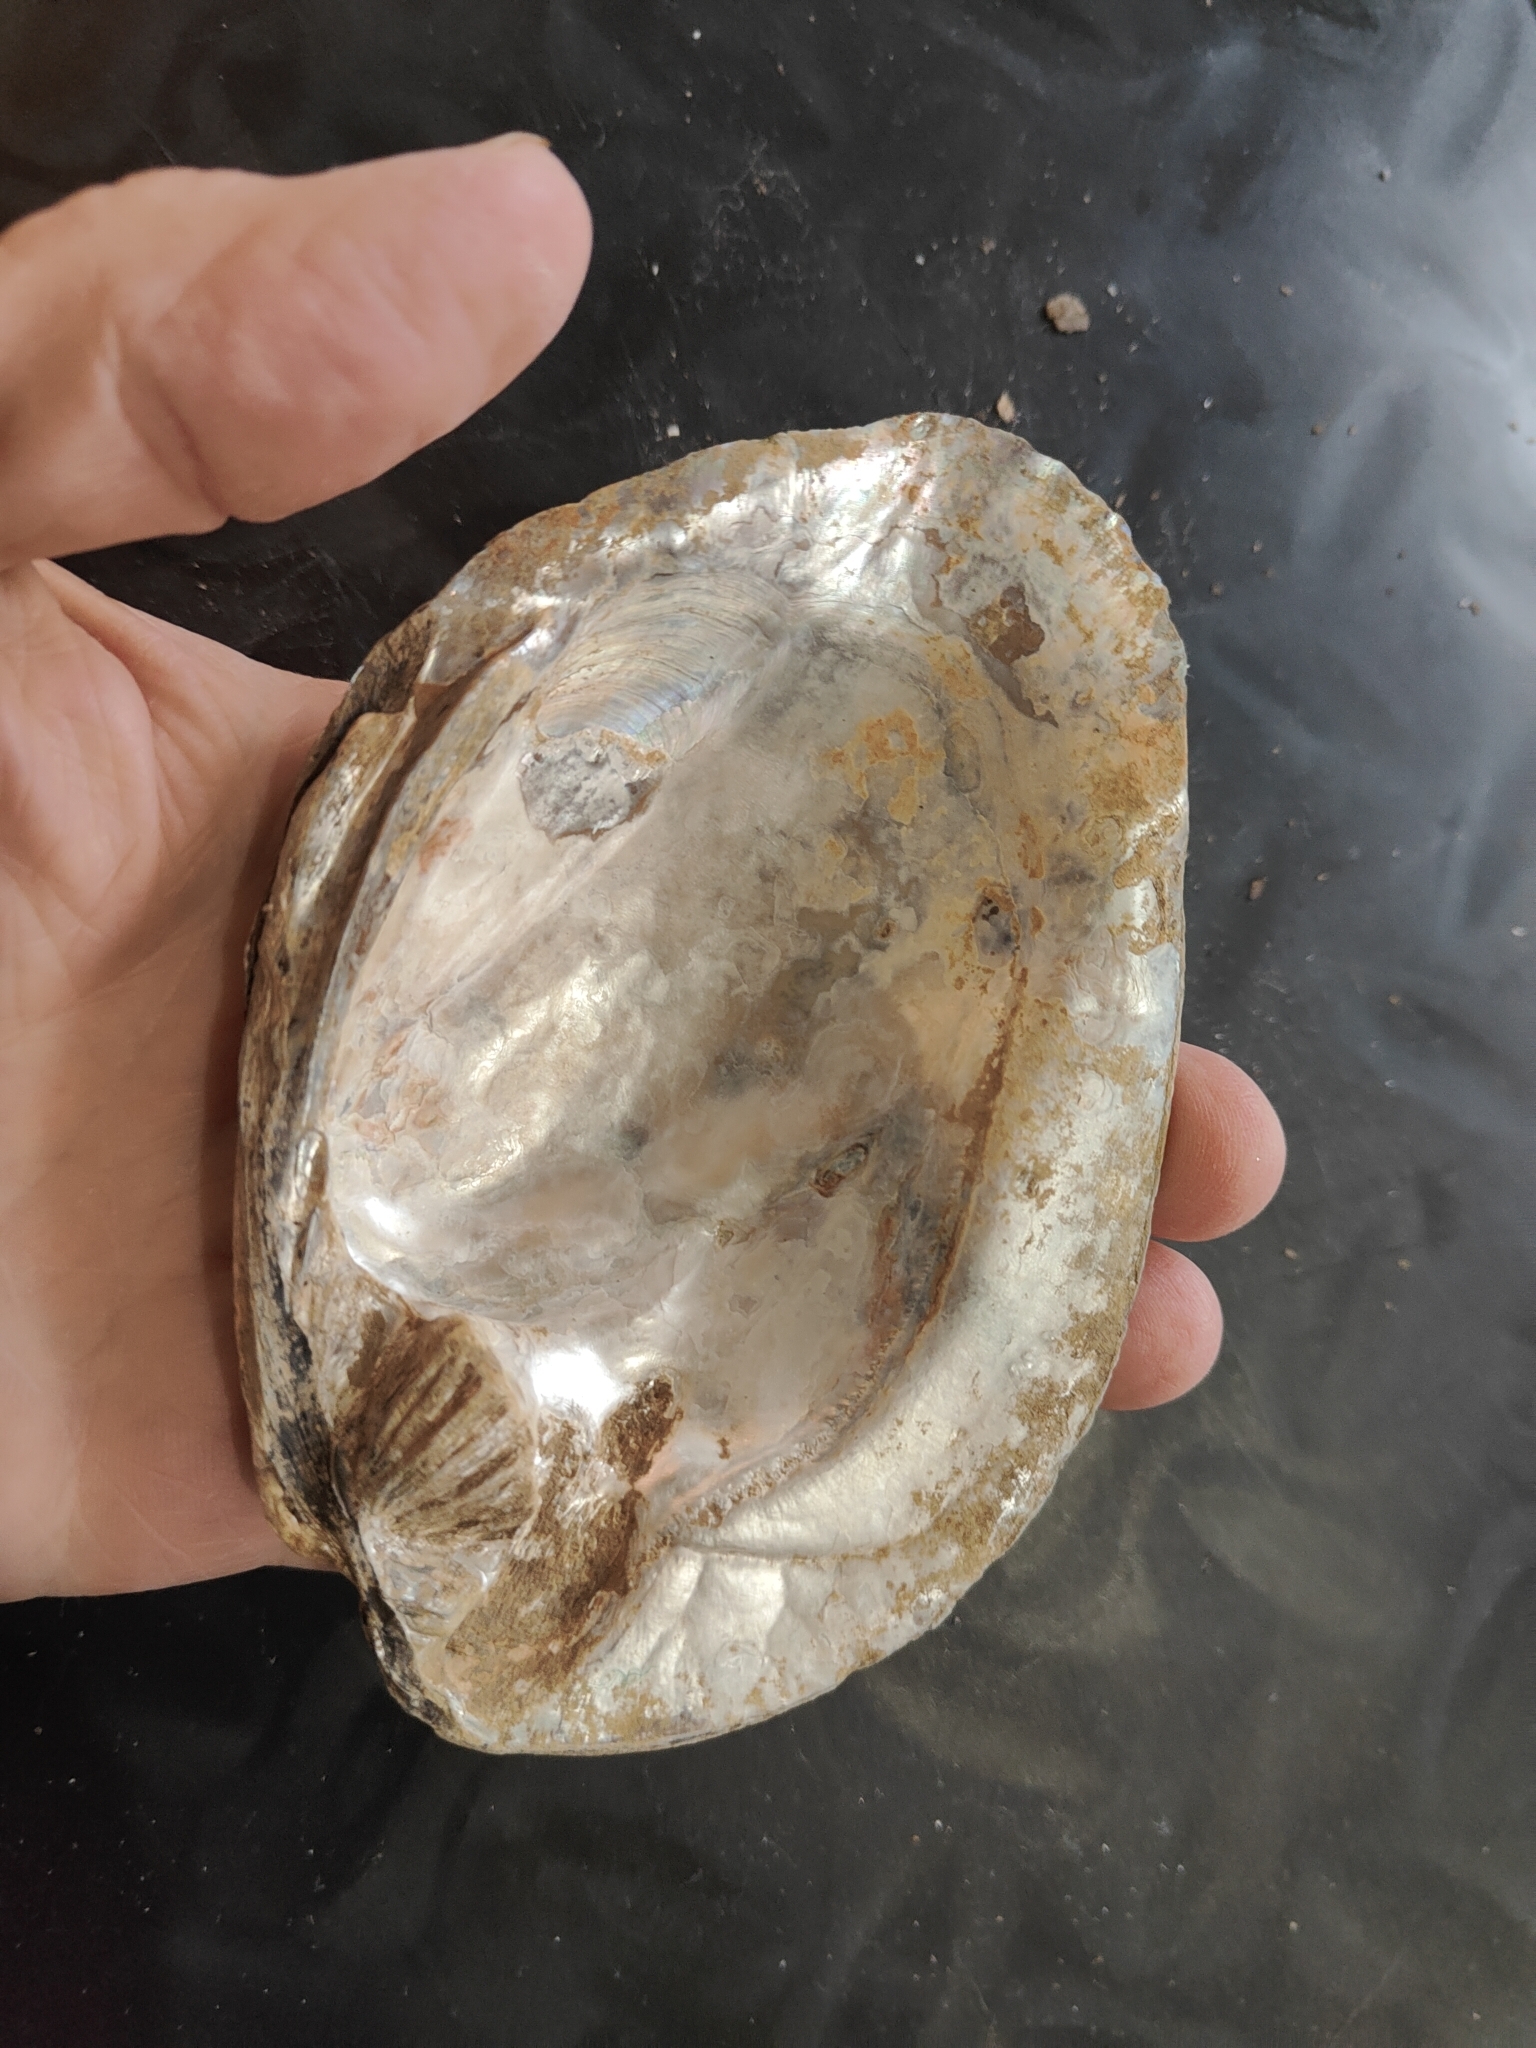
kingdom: Animalia
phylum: Mollusca
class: Bivalvia
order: Unionida
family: Unionidae
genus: Amblema
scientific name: Amblema plicata
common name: Threeridge
